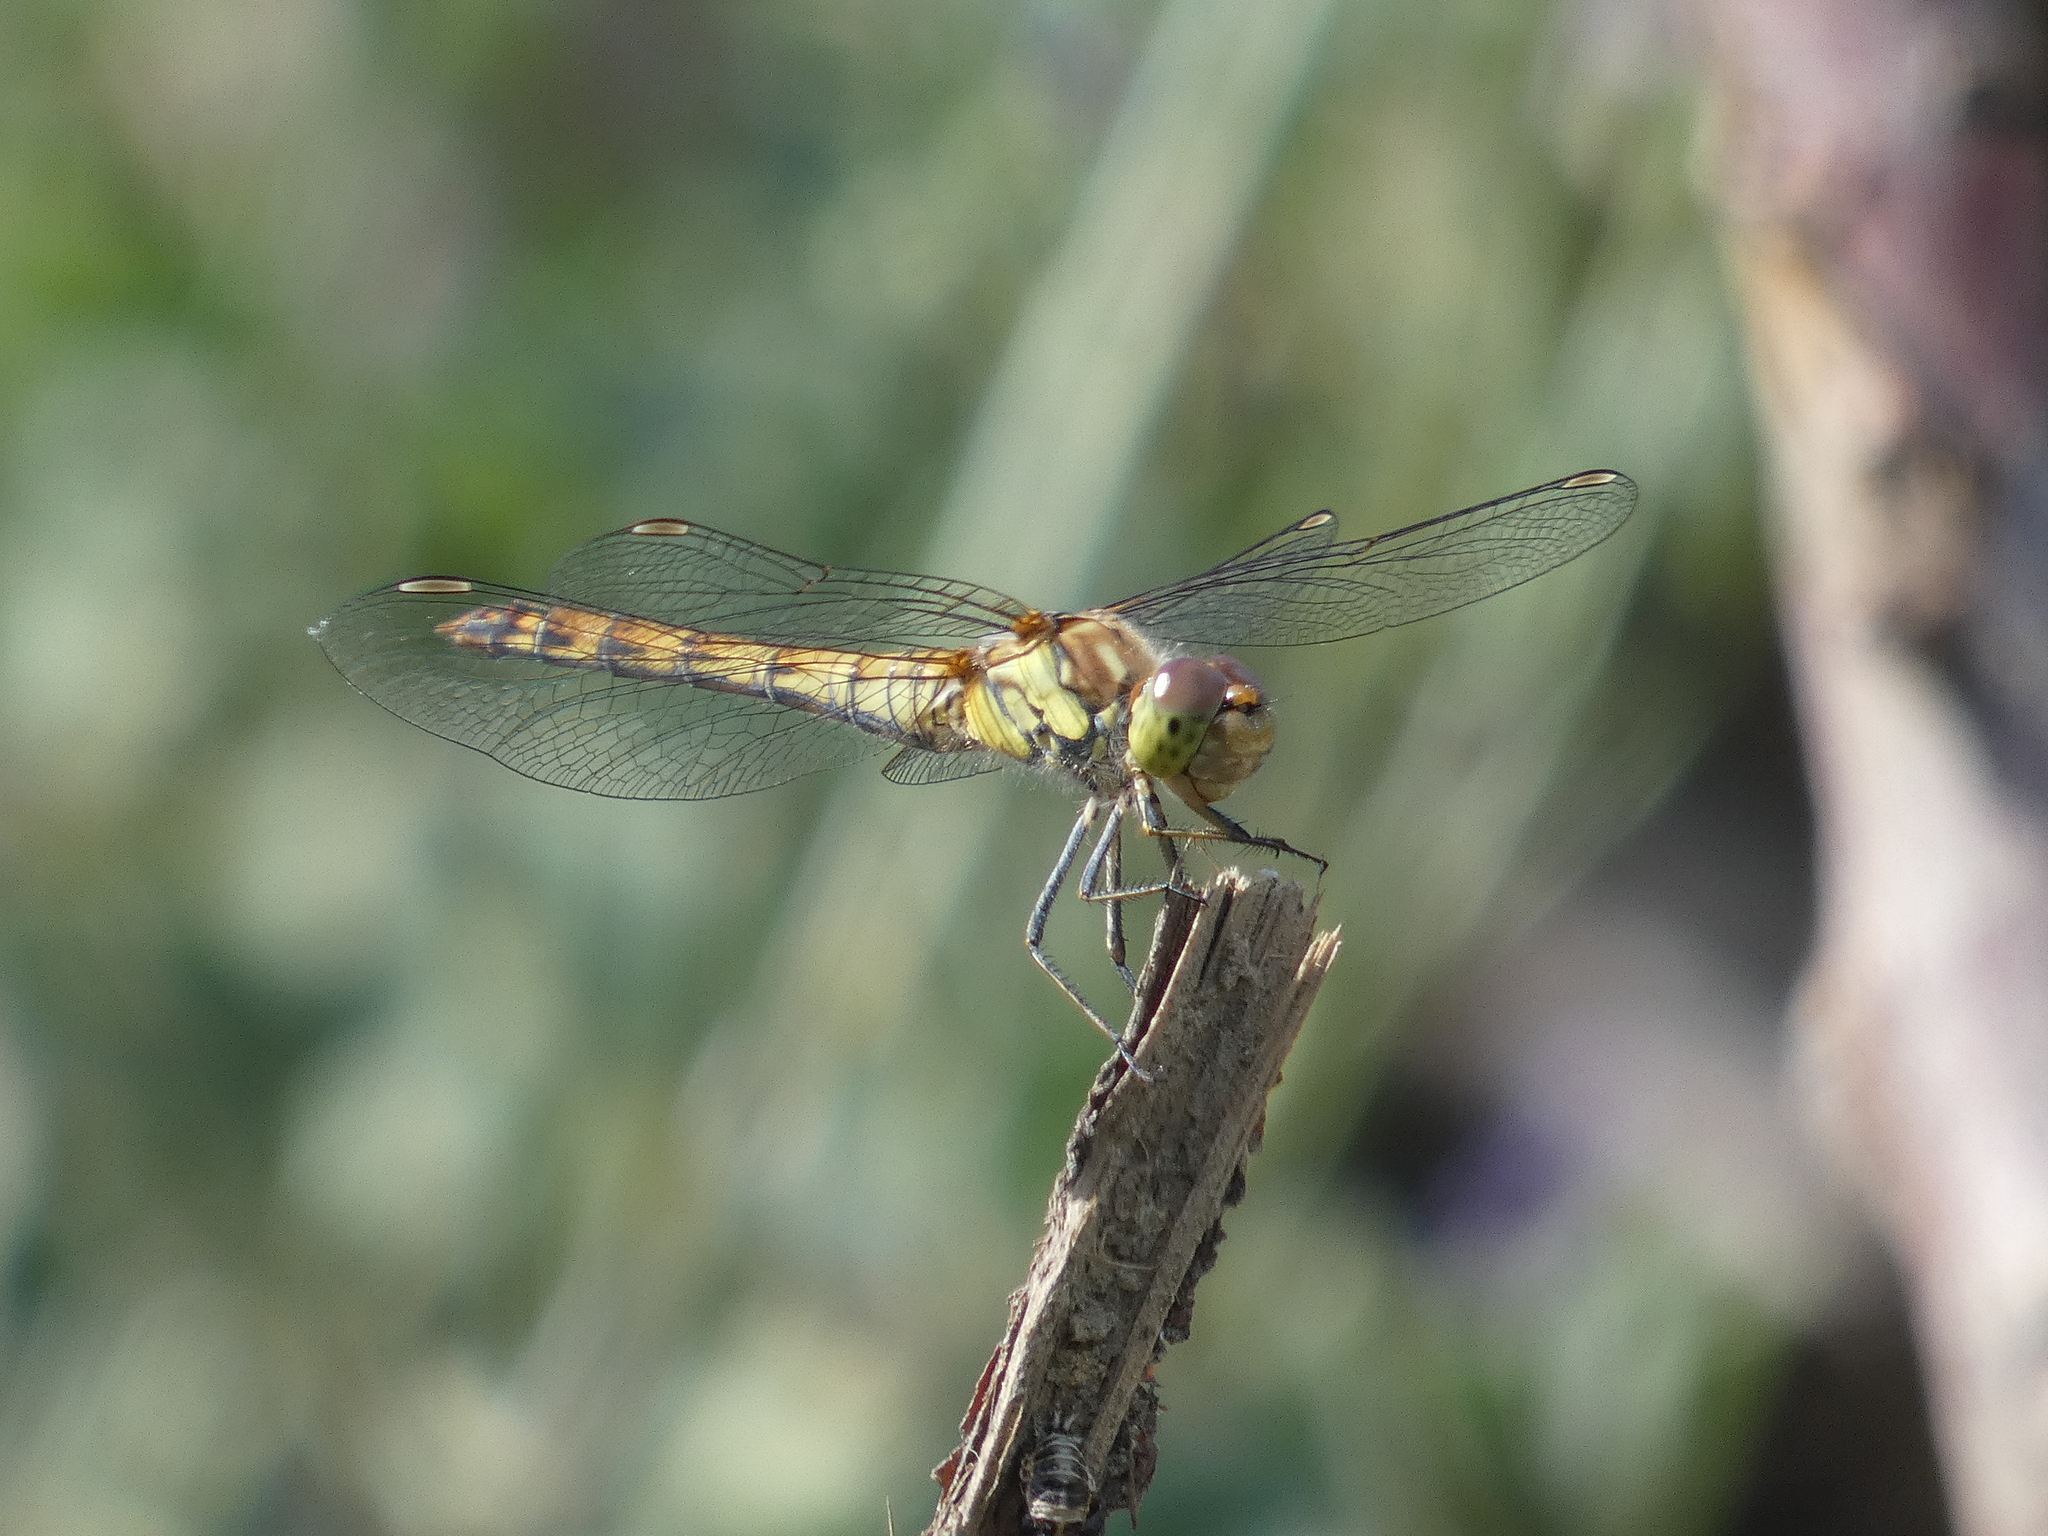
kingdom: Animalia
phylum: Arthropoda
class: Insecta
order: Odonata
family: Libellulidae
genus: Sympetrum
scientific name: Sympetrum striolatum
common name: Common darter
